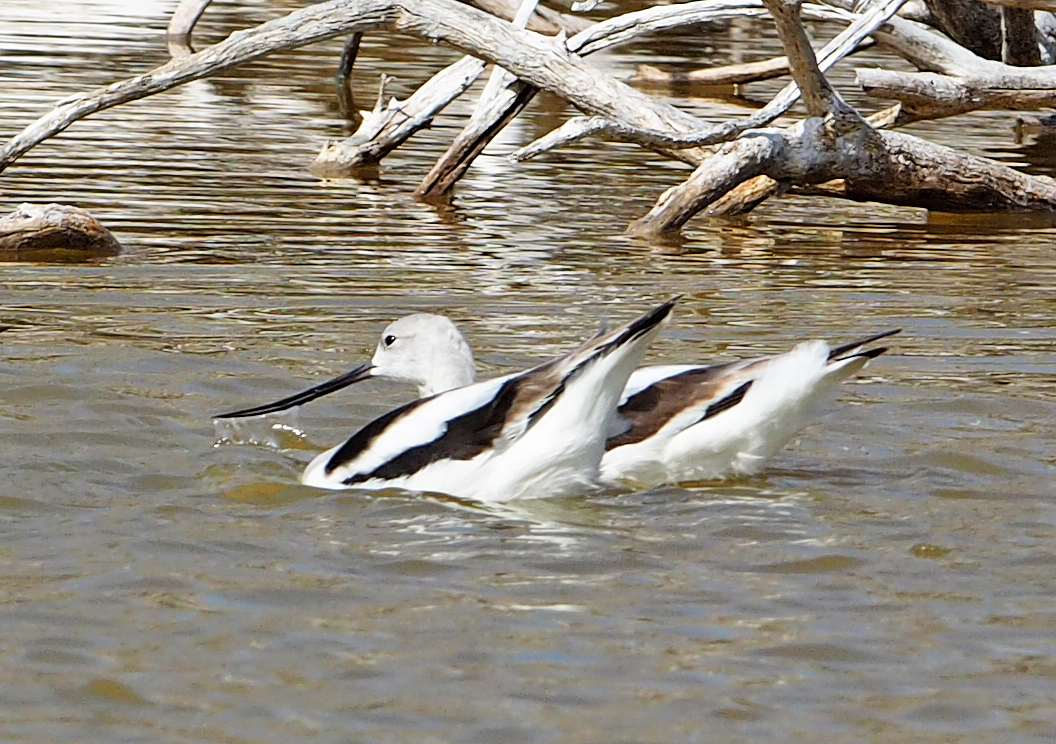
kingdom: Animalia
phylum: Chordata
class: Aves
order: Charadriiformes
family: Recurvirostridae
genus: Recurvirostra
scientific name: Recurvirostra americana
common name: American avocet
